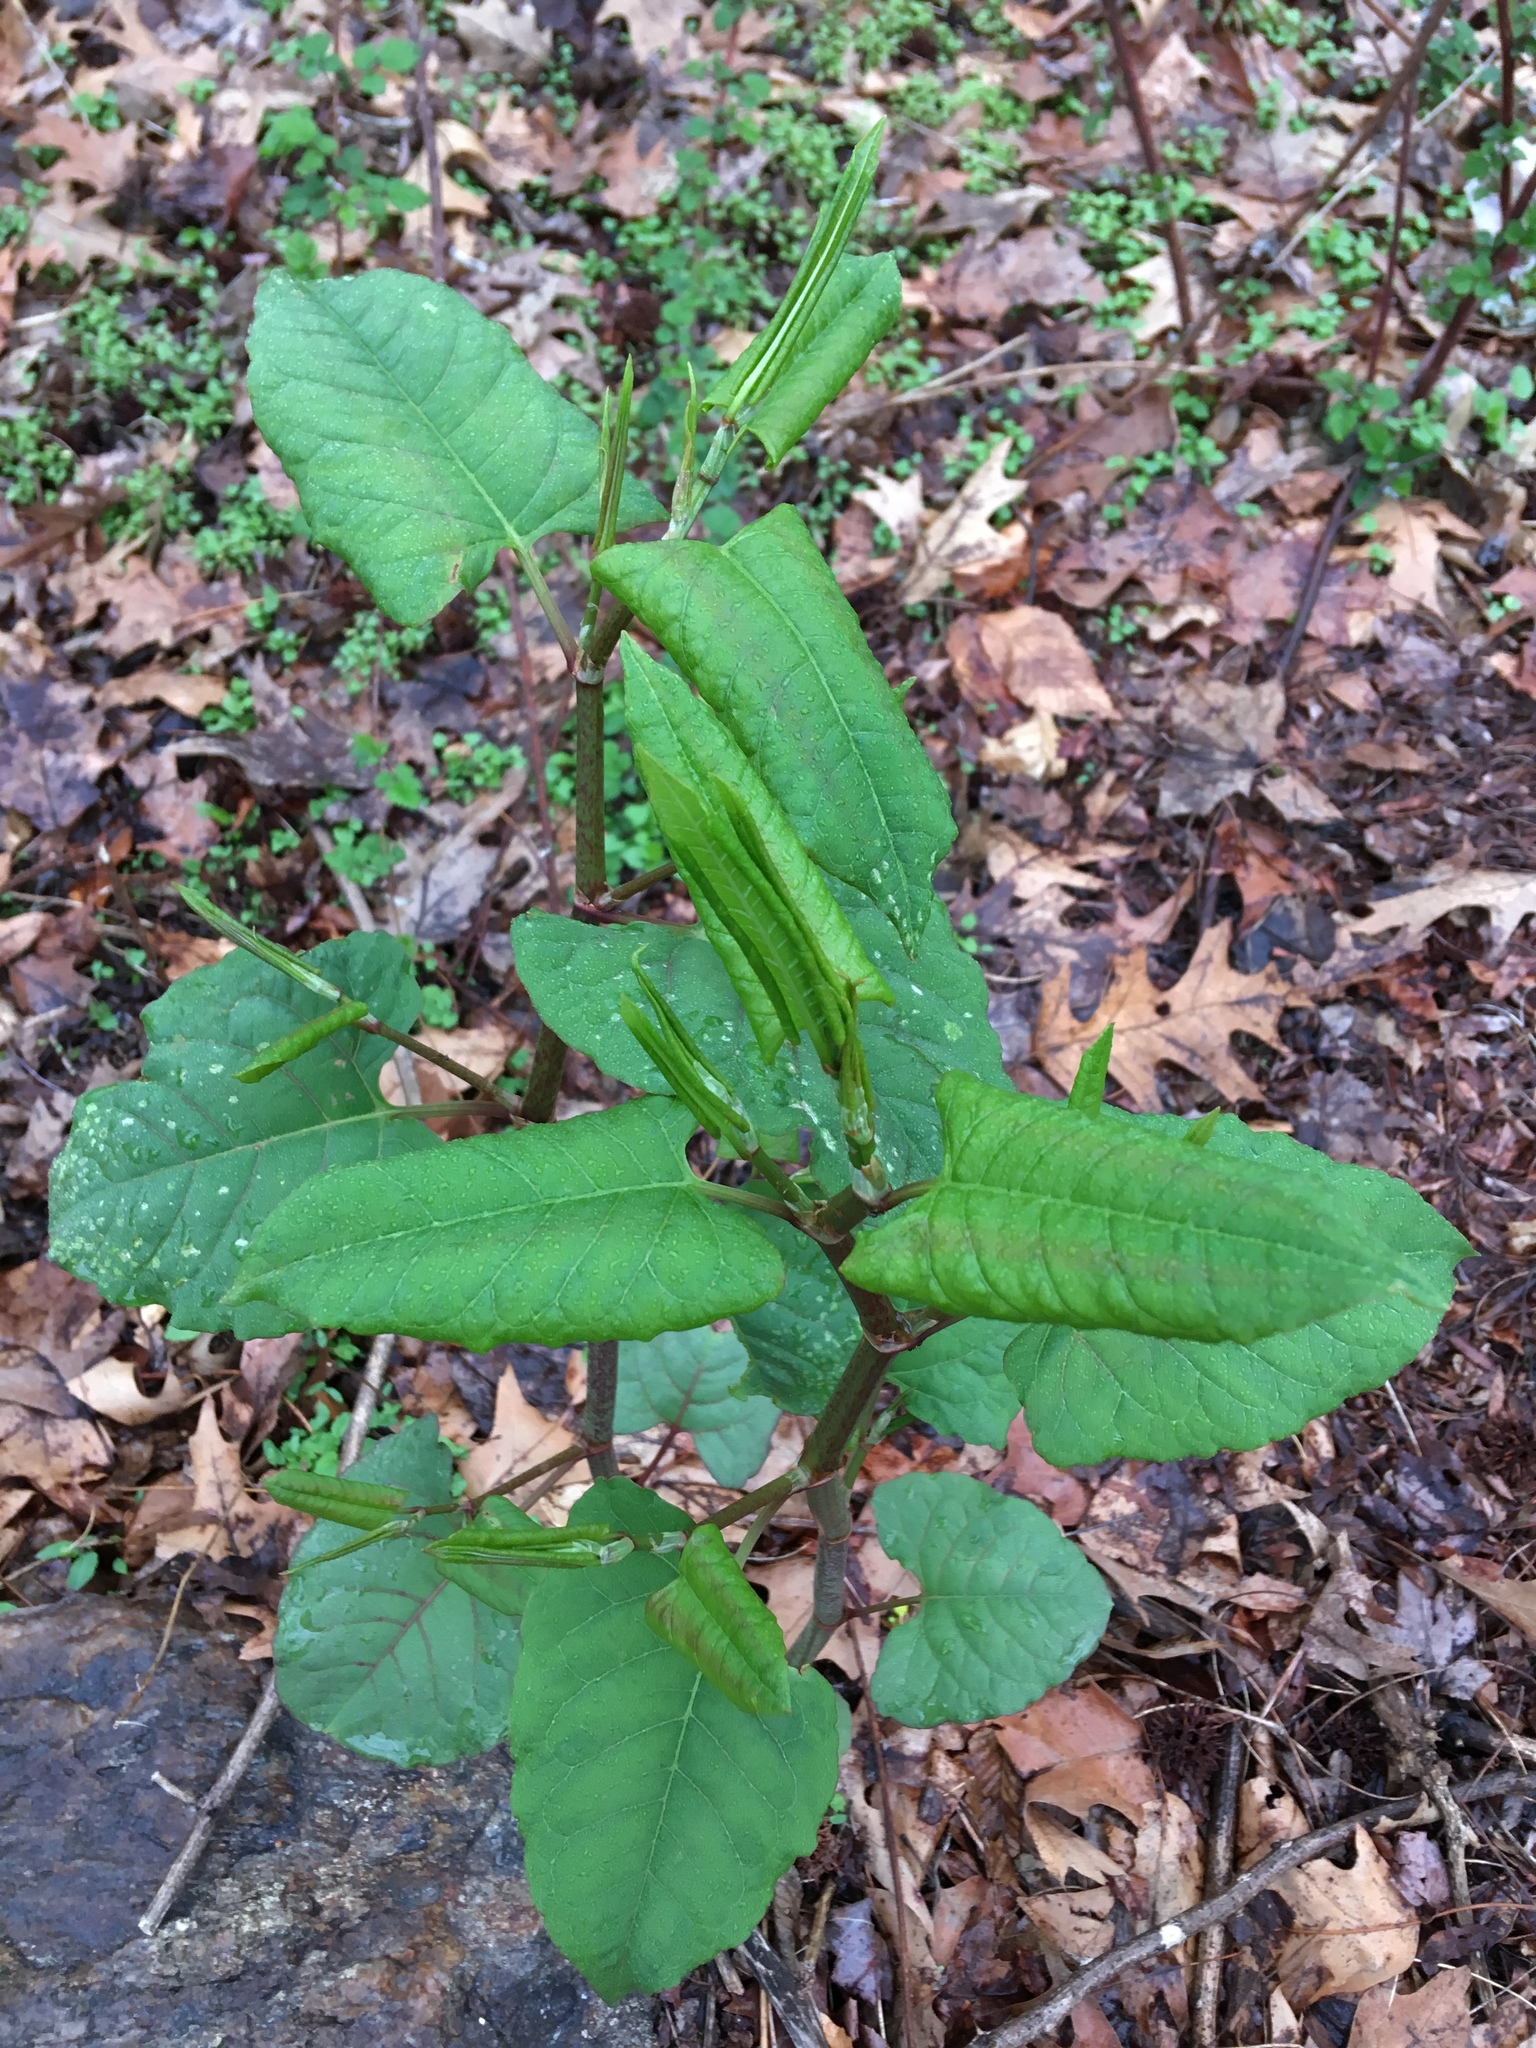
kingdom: Plantae
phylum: Tracheophyta
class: Magnoliopsida
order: Caryophyllales
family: Polygonaceae
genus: Reynoutria
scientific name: Reynoutria japonica
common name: Japanese knotweed
